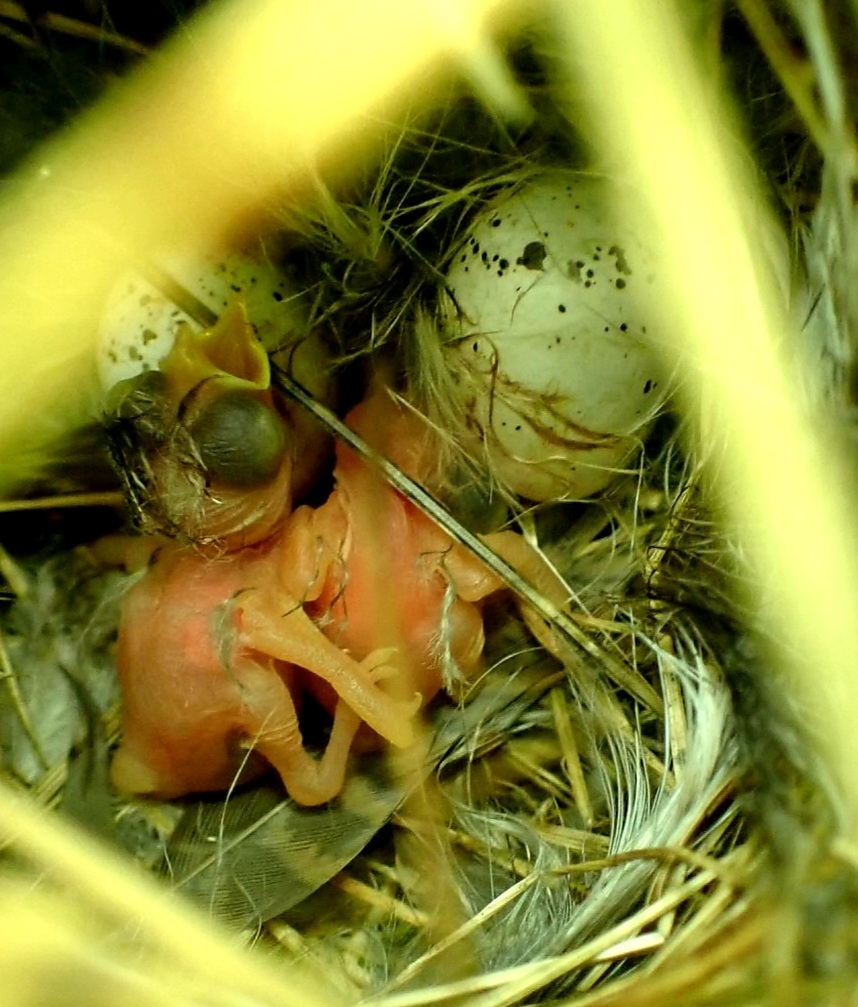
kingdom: Animalia
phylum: Chordata
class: Aves
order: Passeriformes
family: Phylloscopidae
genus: Phylloscopus
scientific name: Phylloscopus collybita
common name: Common chiffchaff
